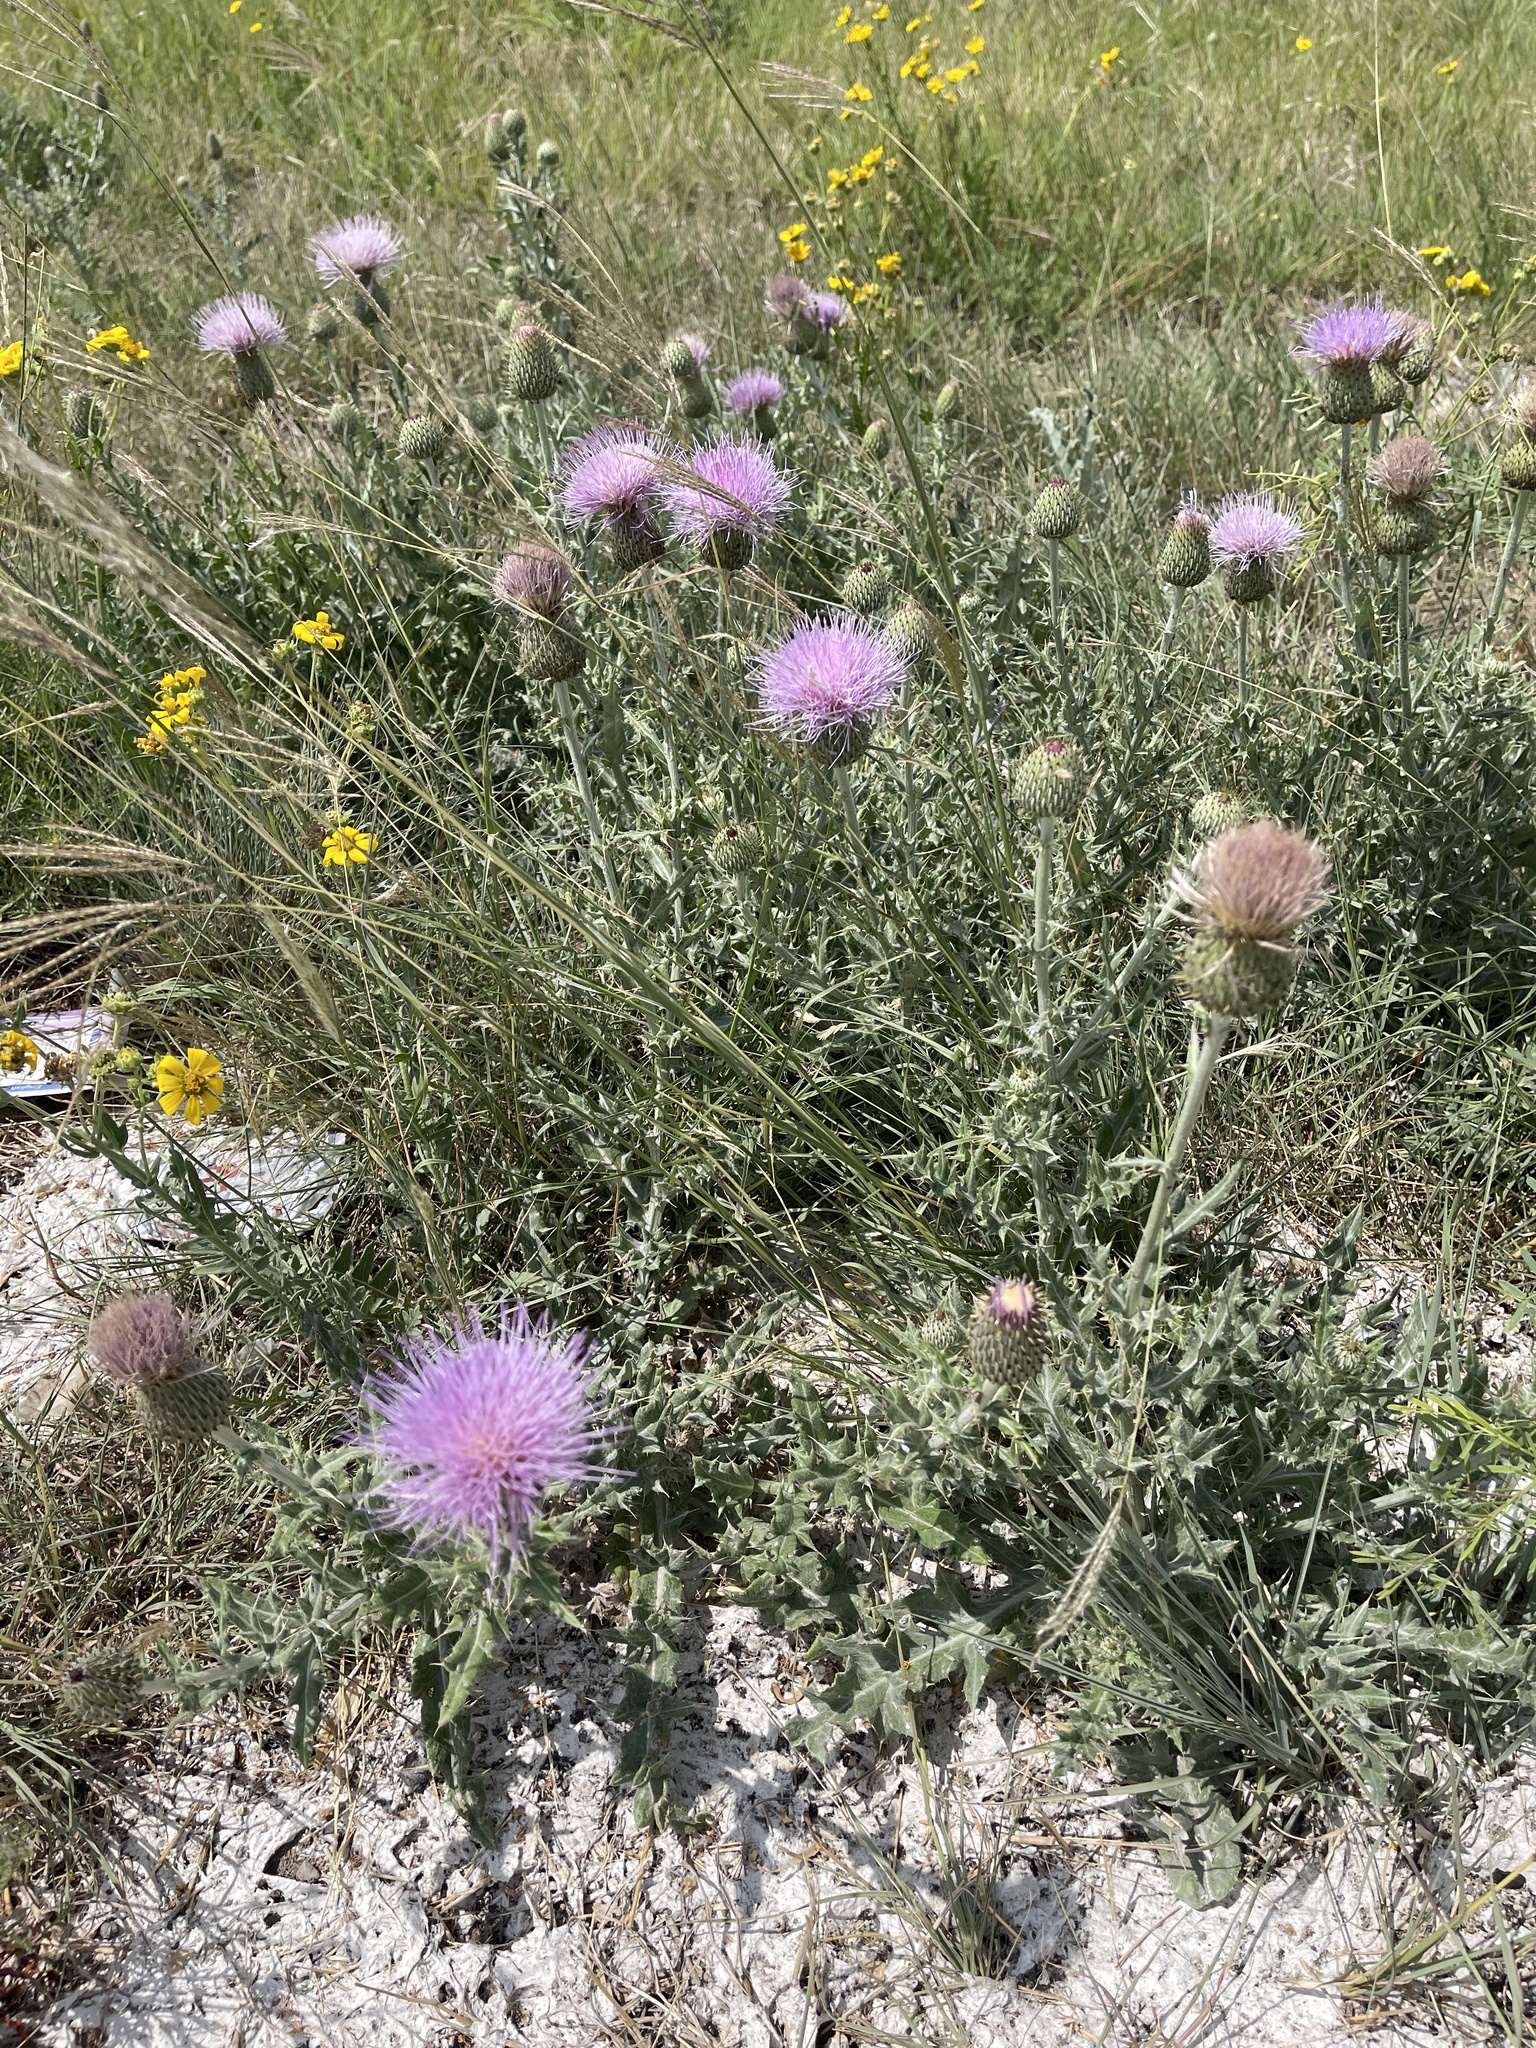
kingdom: Plantae
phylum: Tracheophyta
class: Magnoliopsida
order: Asterales
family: Asteraceae
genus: Cirsium
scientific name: Cirsium texanum
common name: Texas purple thistle
